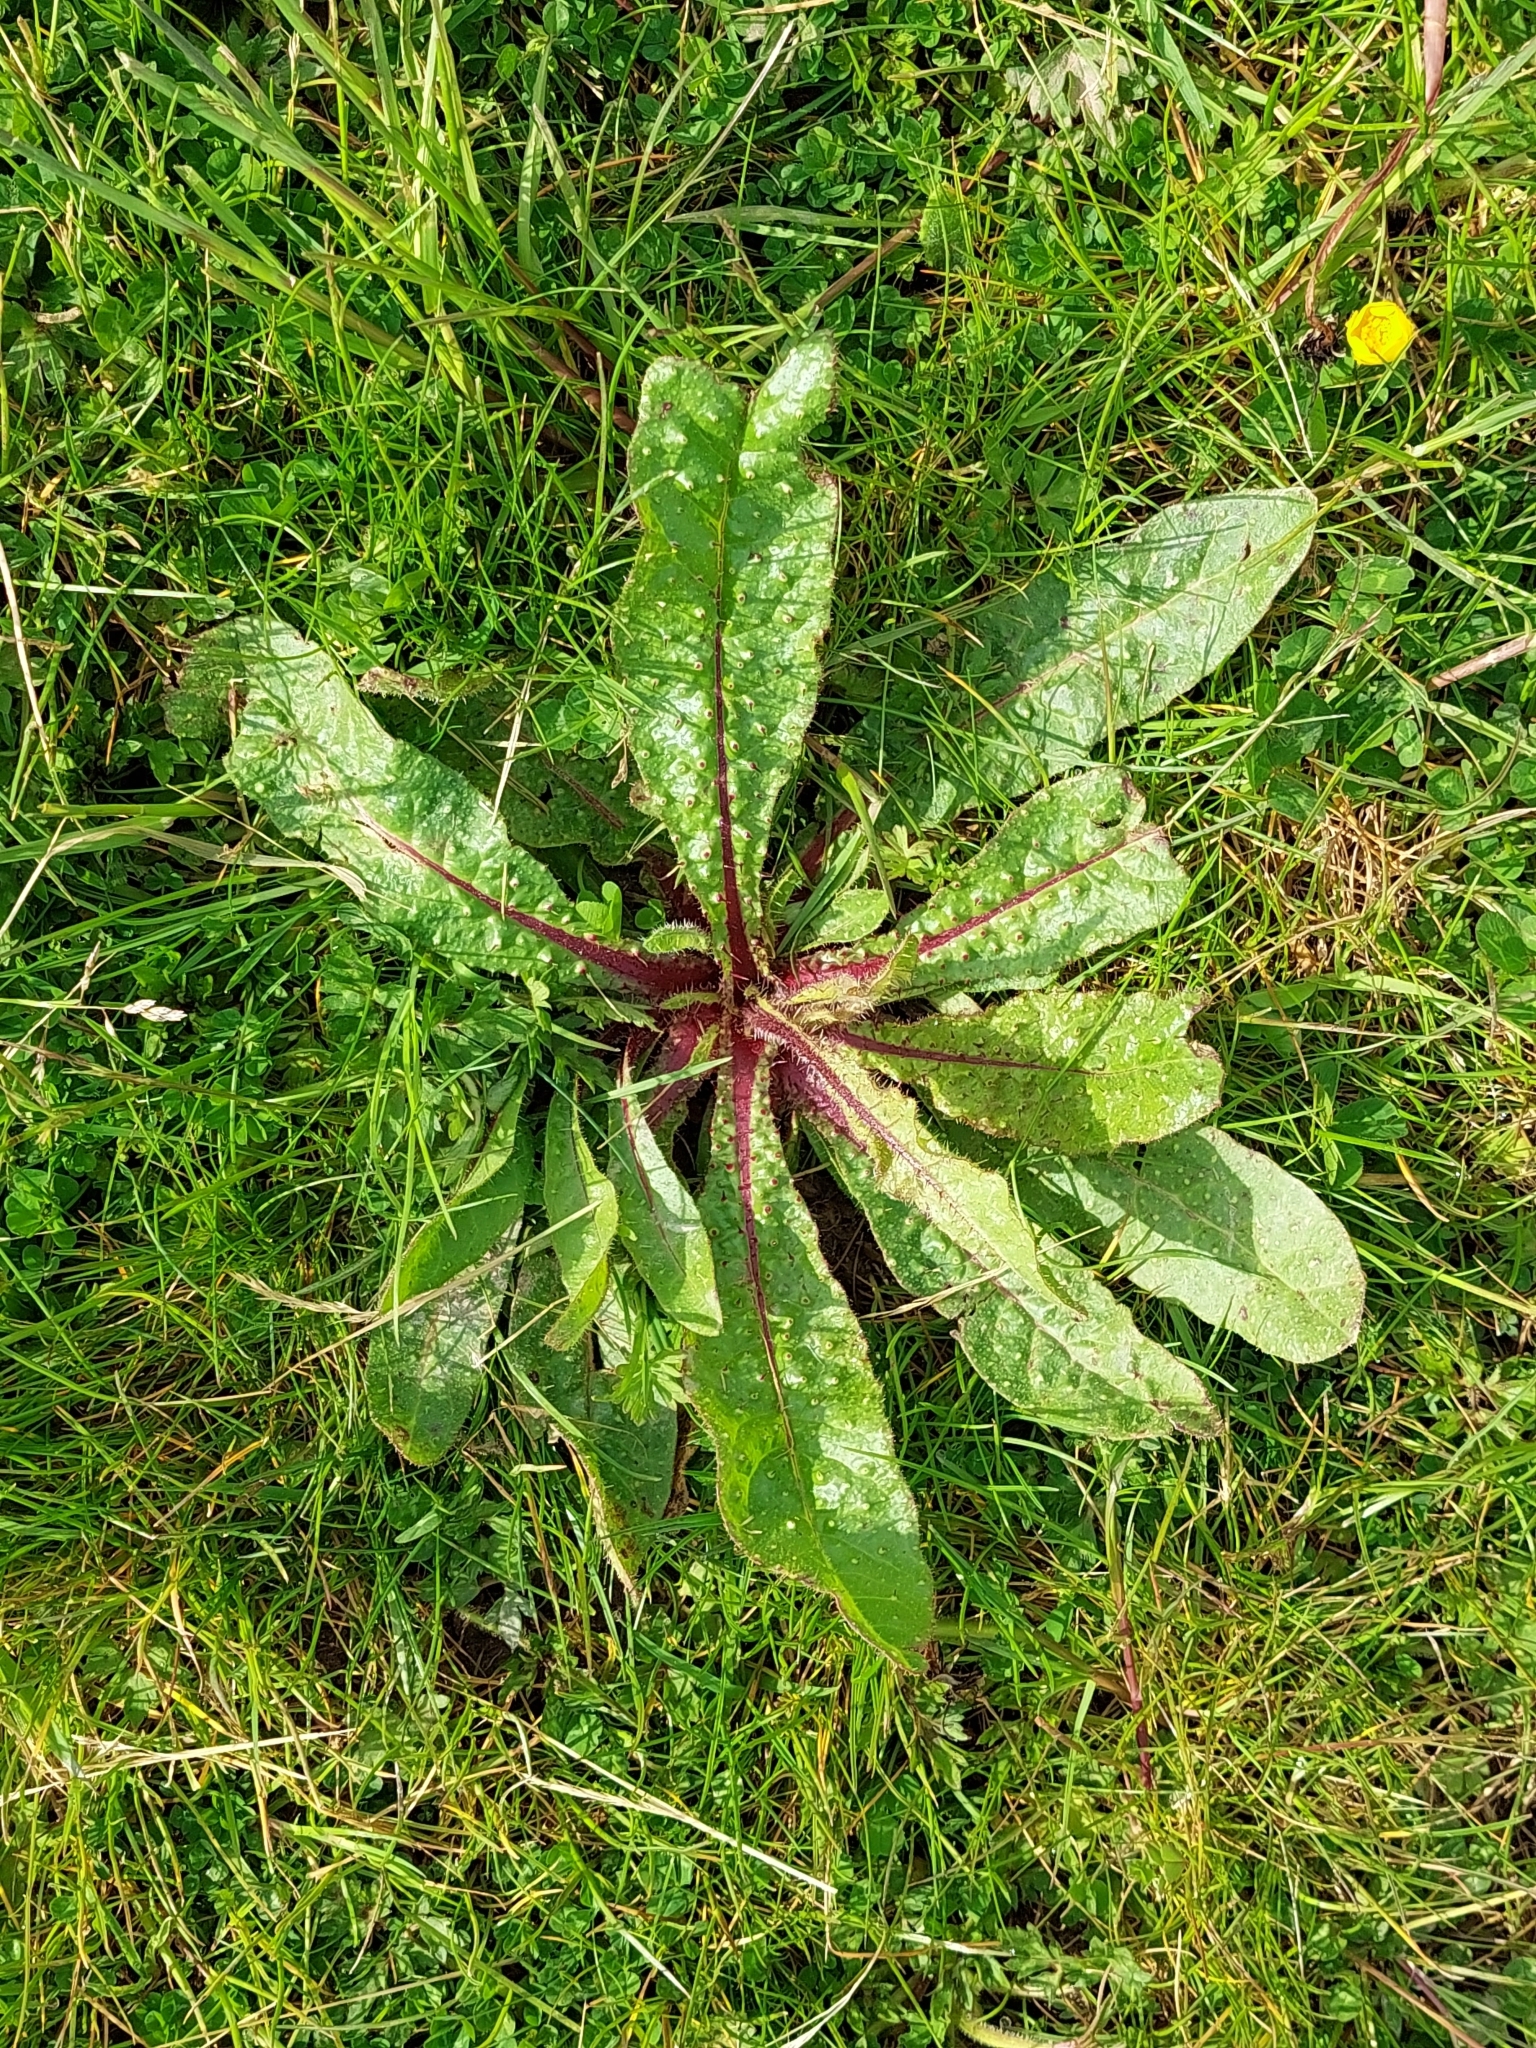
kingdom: Plantae
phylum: Tracheophyta
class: Magnoliopsida
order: Asterales
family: Asteraceae
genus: Helminthotheca
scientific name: Helminthotheca echioides
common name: Ox-tongue
